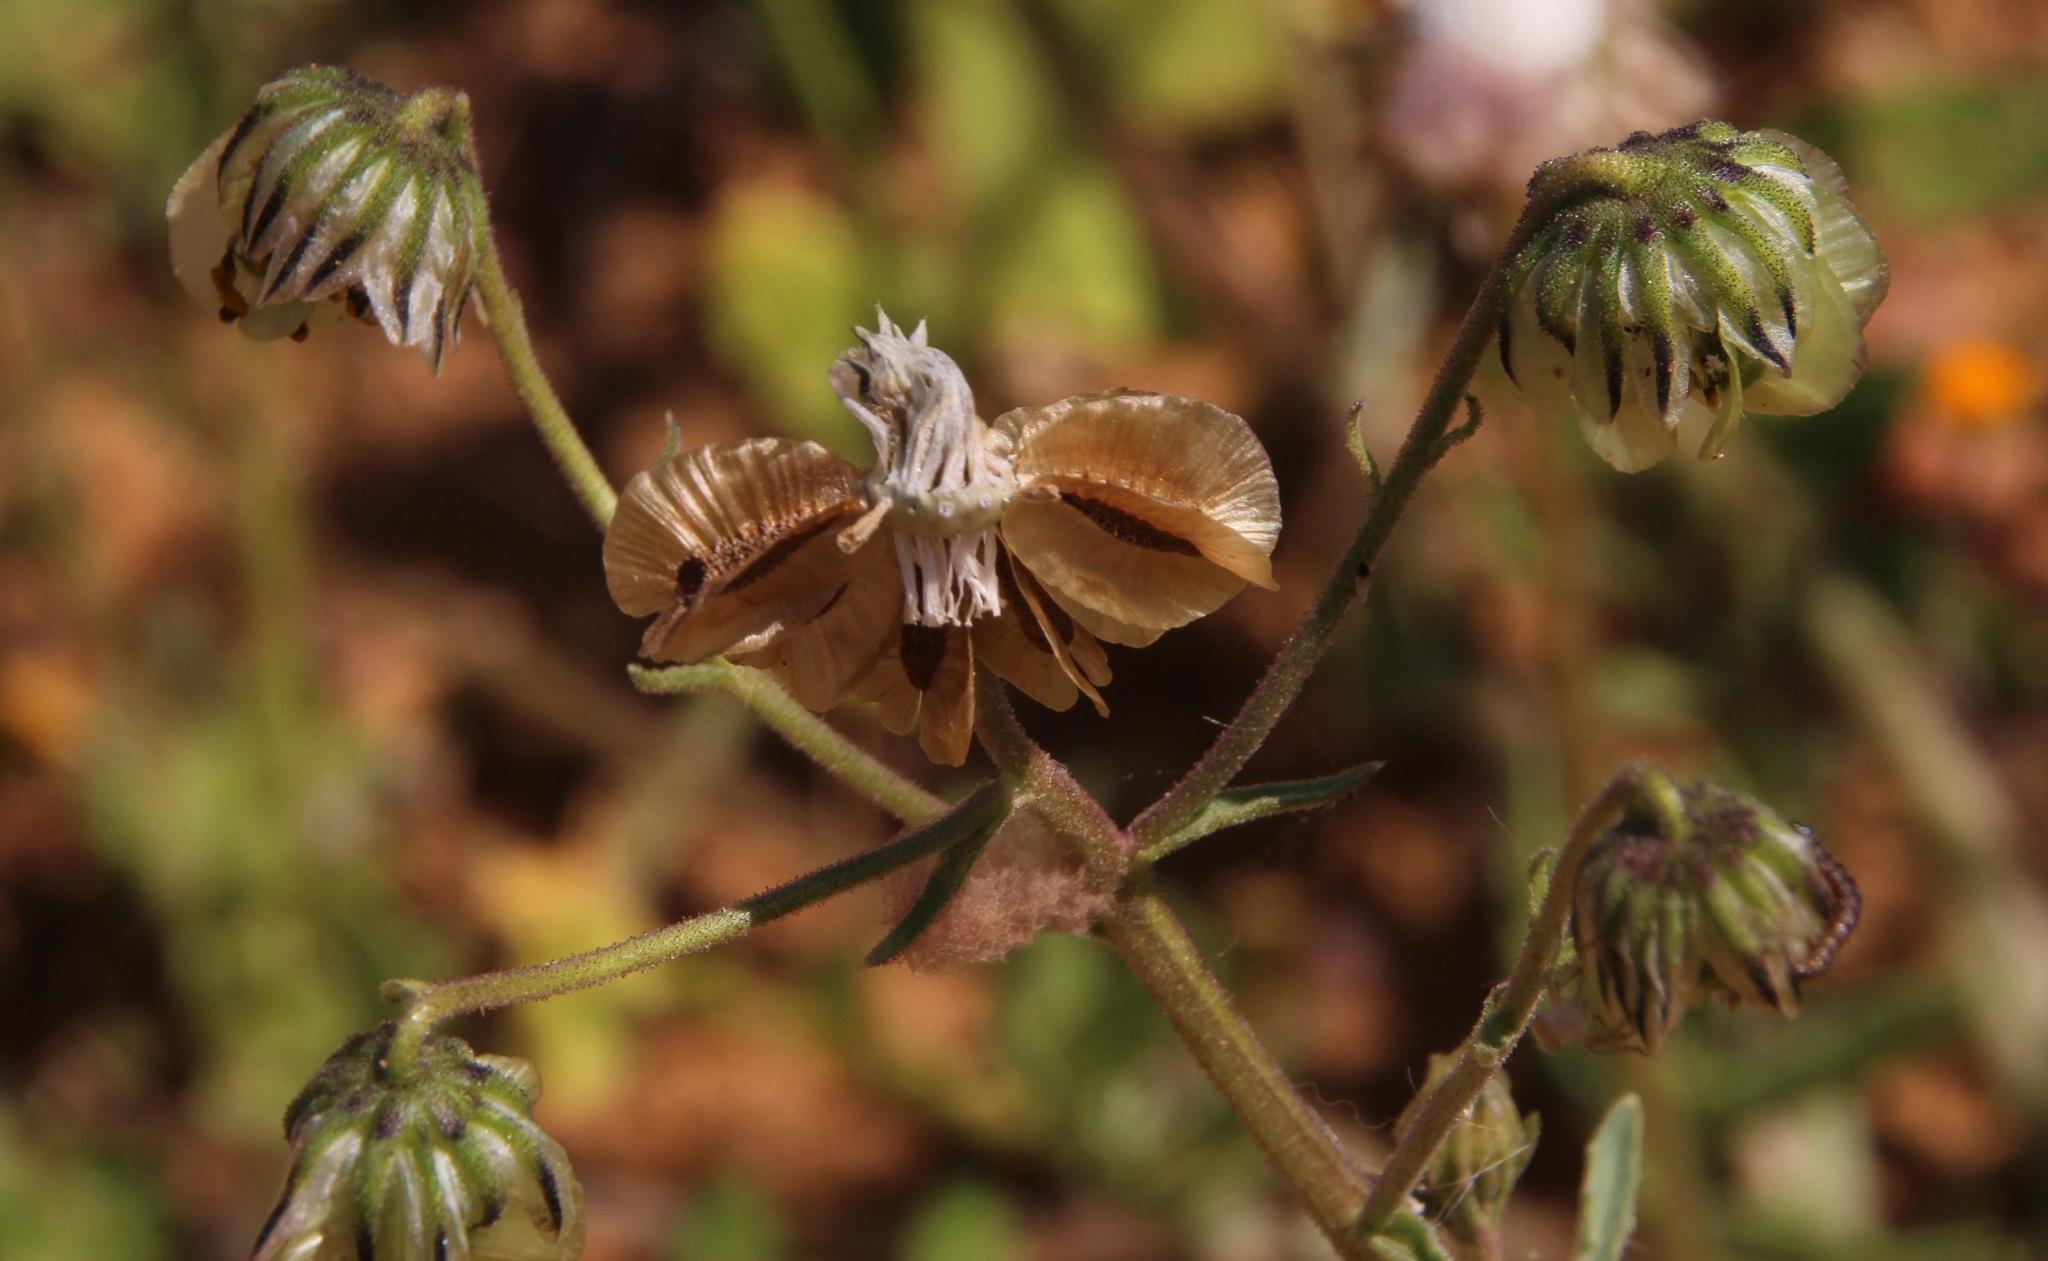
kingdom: Plantae
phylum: Tracheophyta
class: Magnoliopsida
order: Asterales
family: Asteraceae
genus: Osteospermum
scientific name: Osteospermum monstrosum
